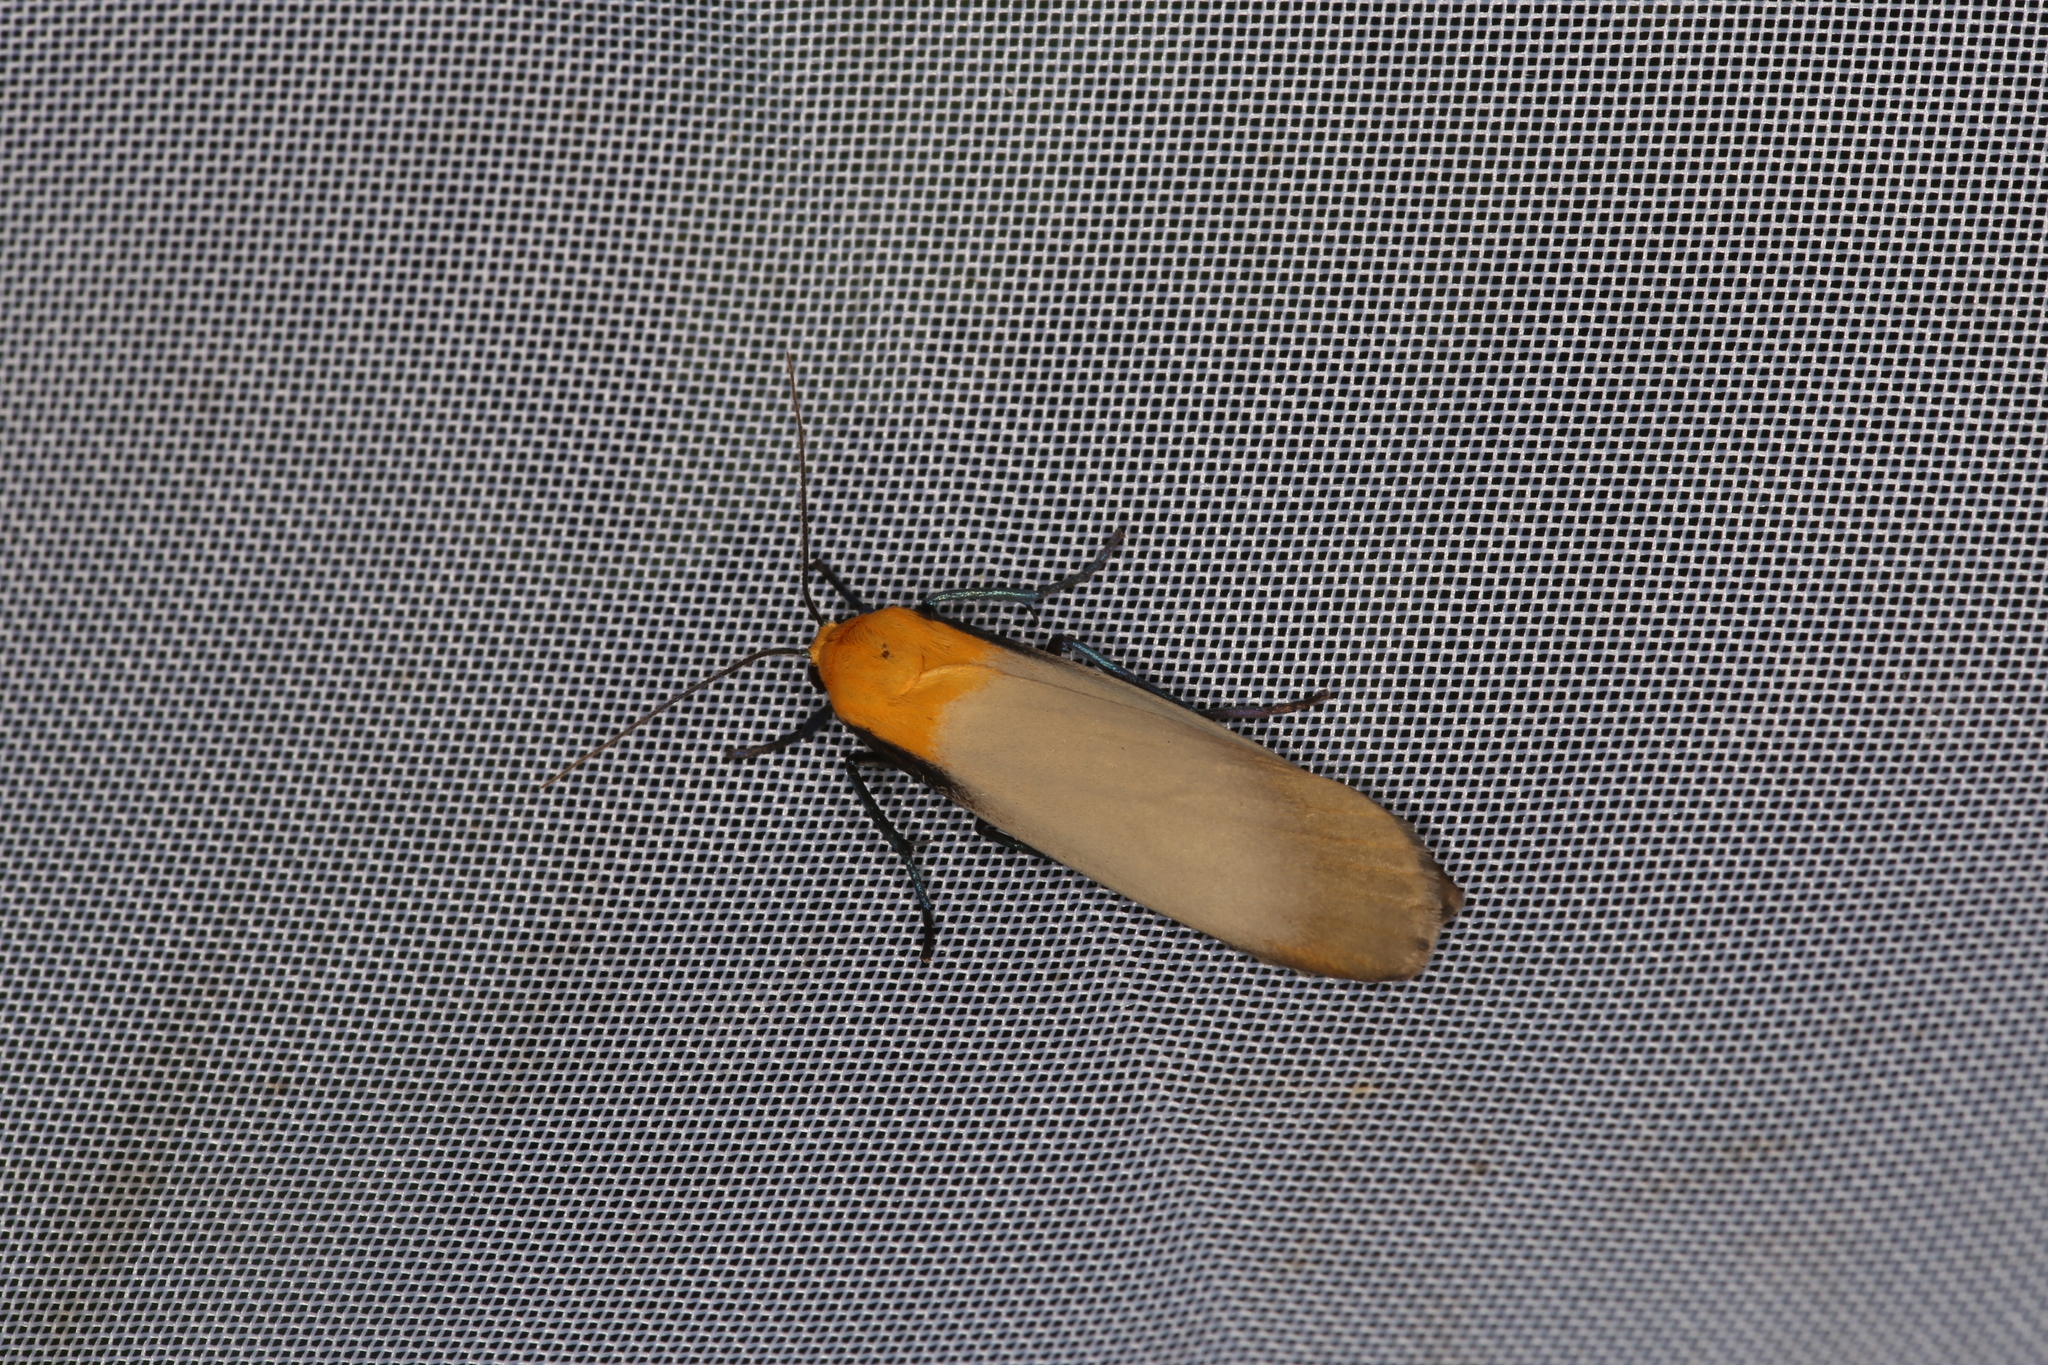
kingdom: Animalia
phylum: Arthropoda
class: Insecta
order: Lepidoptera
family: Erebidae
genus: Lithosia
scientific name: Lithosia quadra
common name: Four-spotted footman
